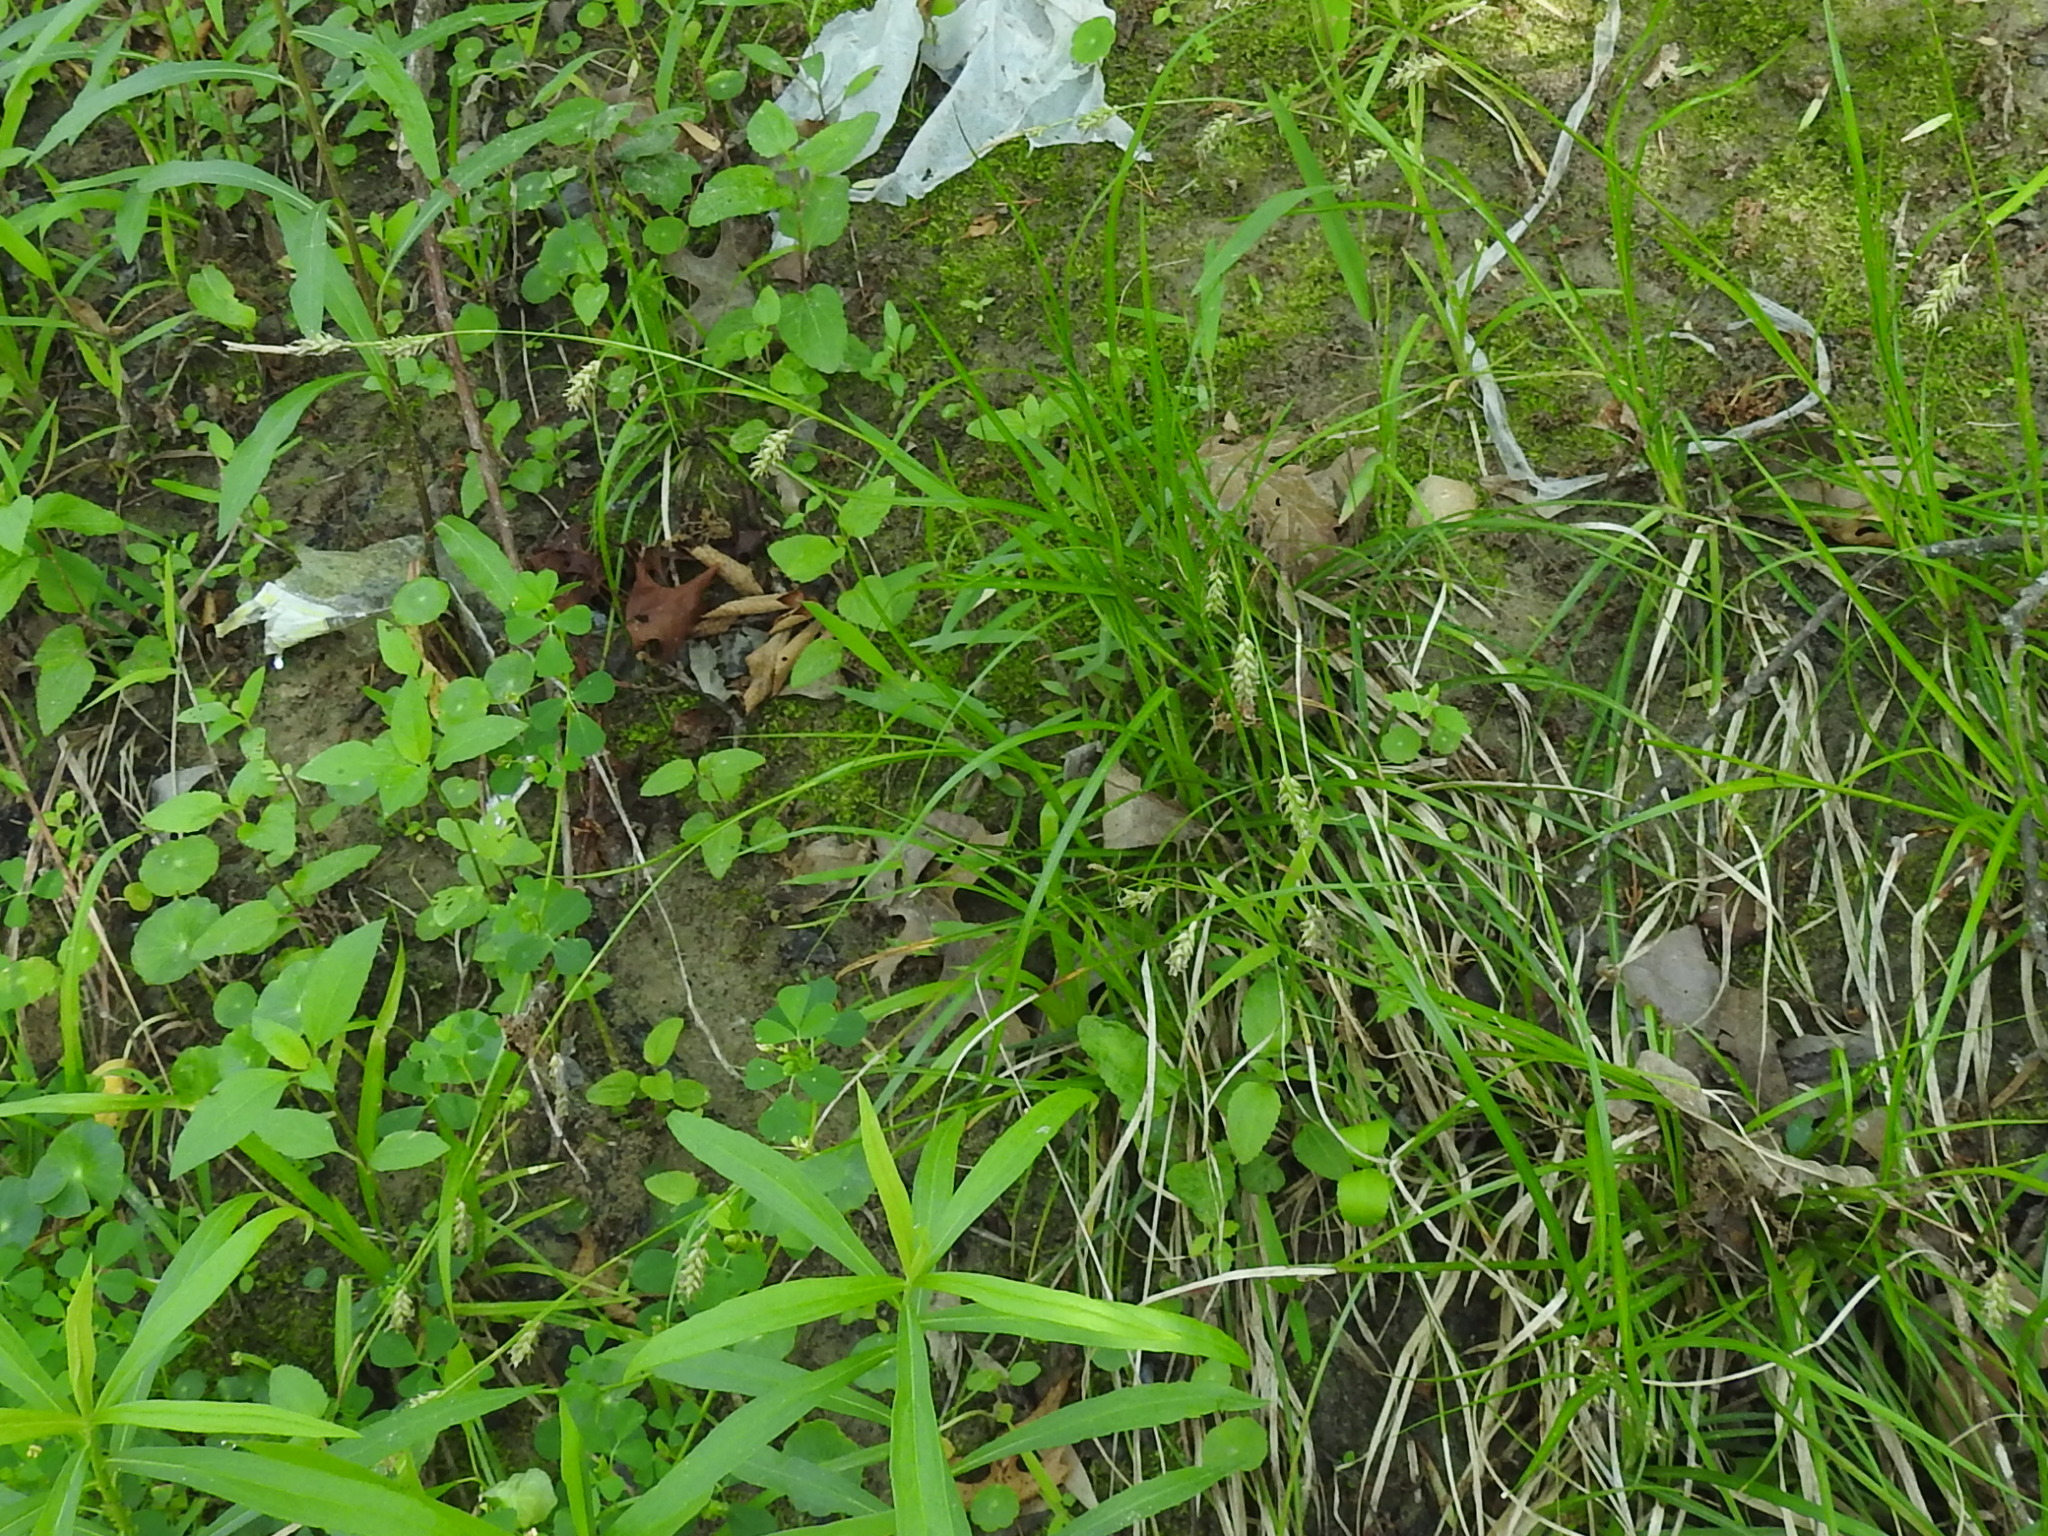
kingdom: Plantae
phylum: Tracheophyta
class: Liliopsida
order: Poales
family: Cyperaceae
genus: Carex
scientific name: Carex cherokeensis
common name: Cherokee sedge
